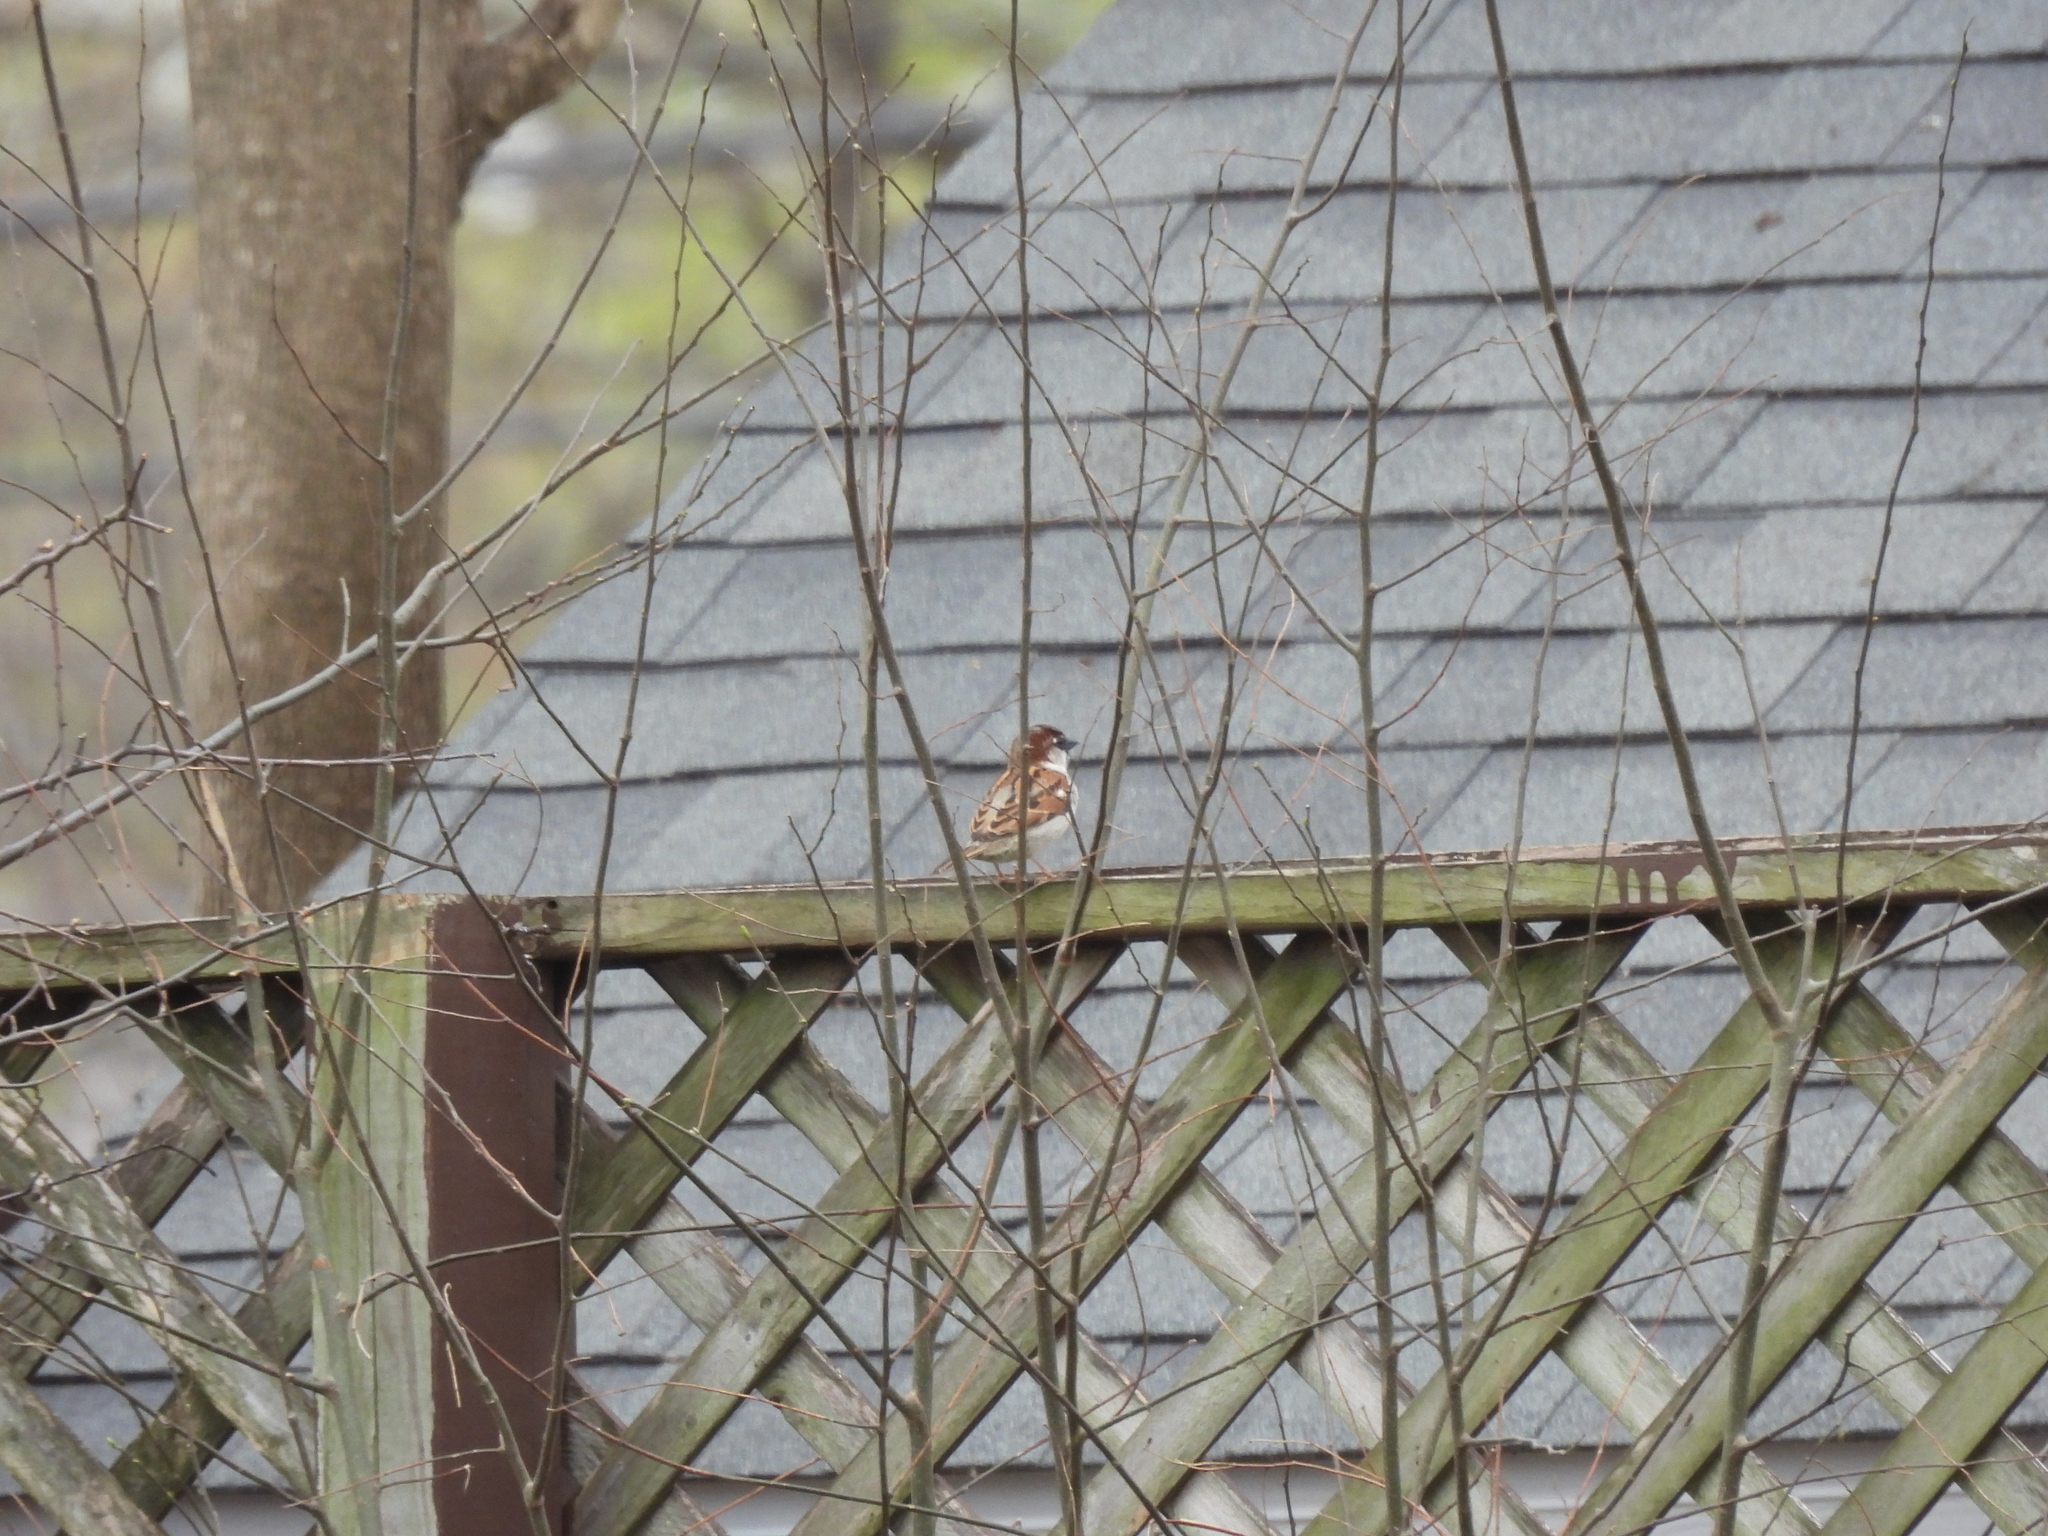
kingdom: Animalia
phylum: Chordata
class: Aves
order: Passeriformes
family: Passeridae
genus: Passer
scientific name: Passer domesticus
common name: House sparrow
